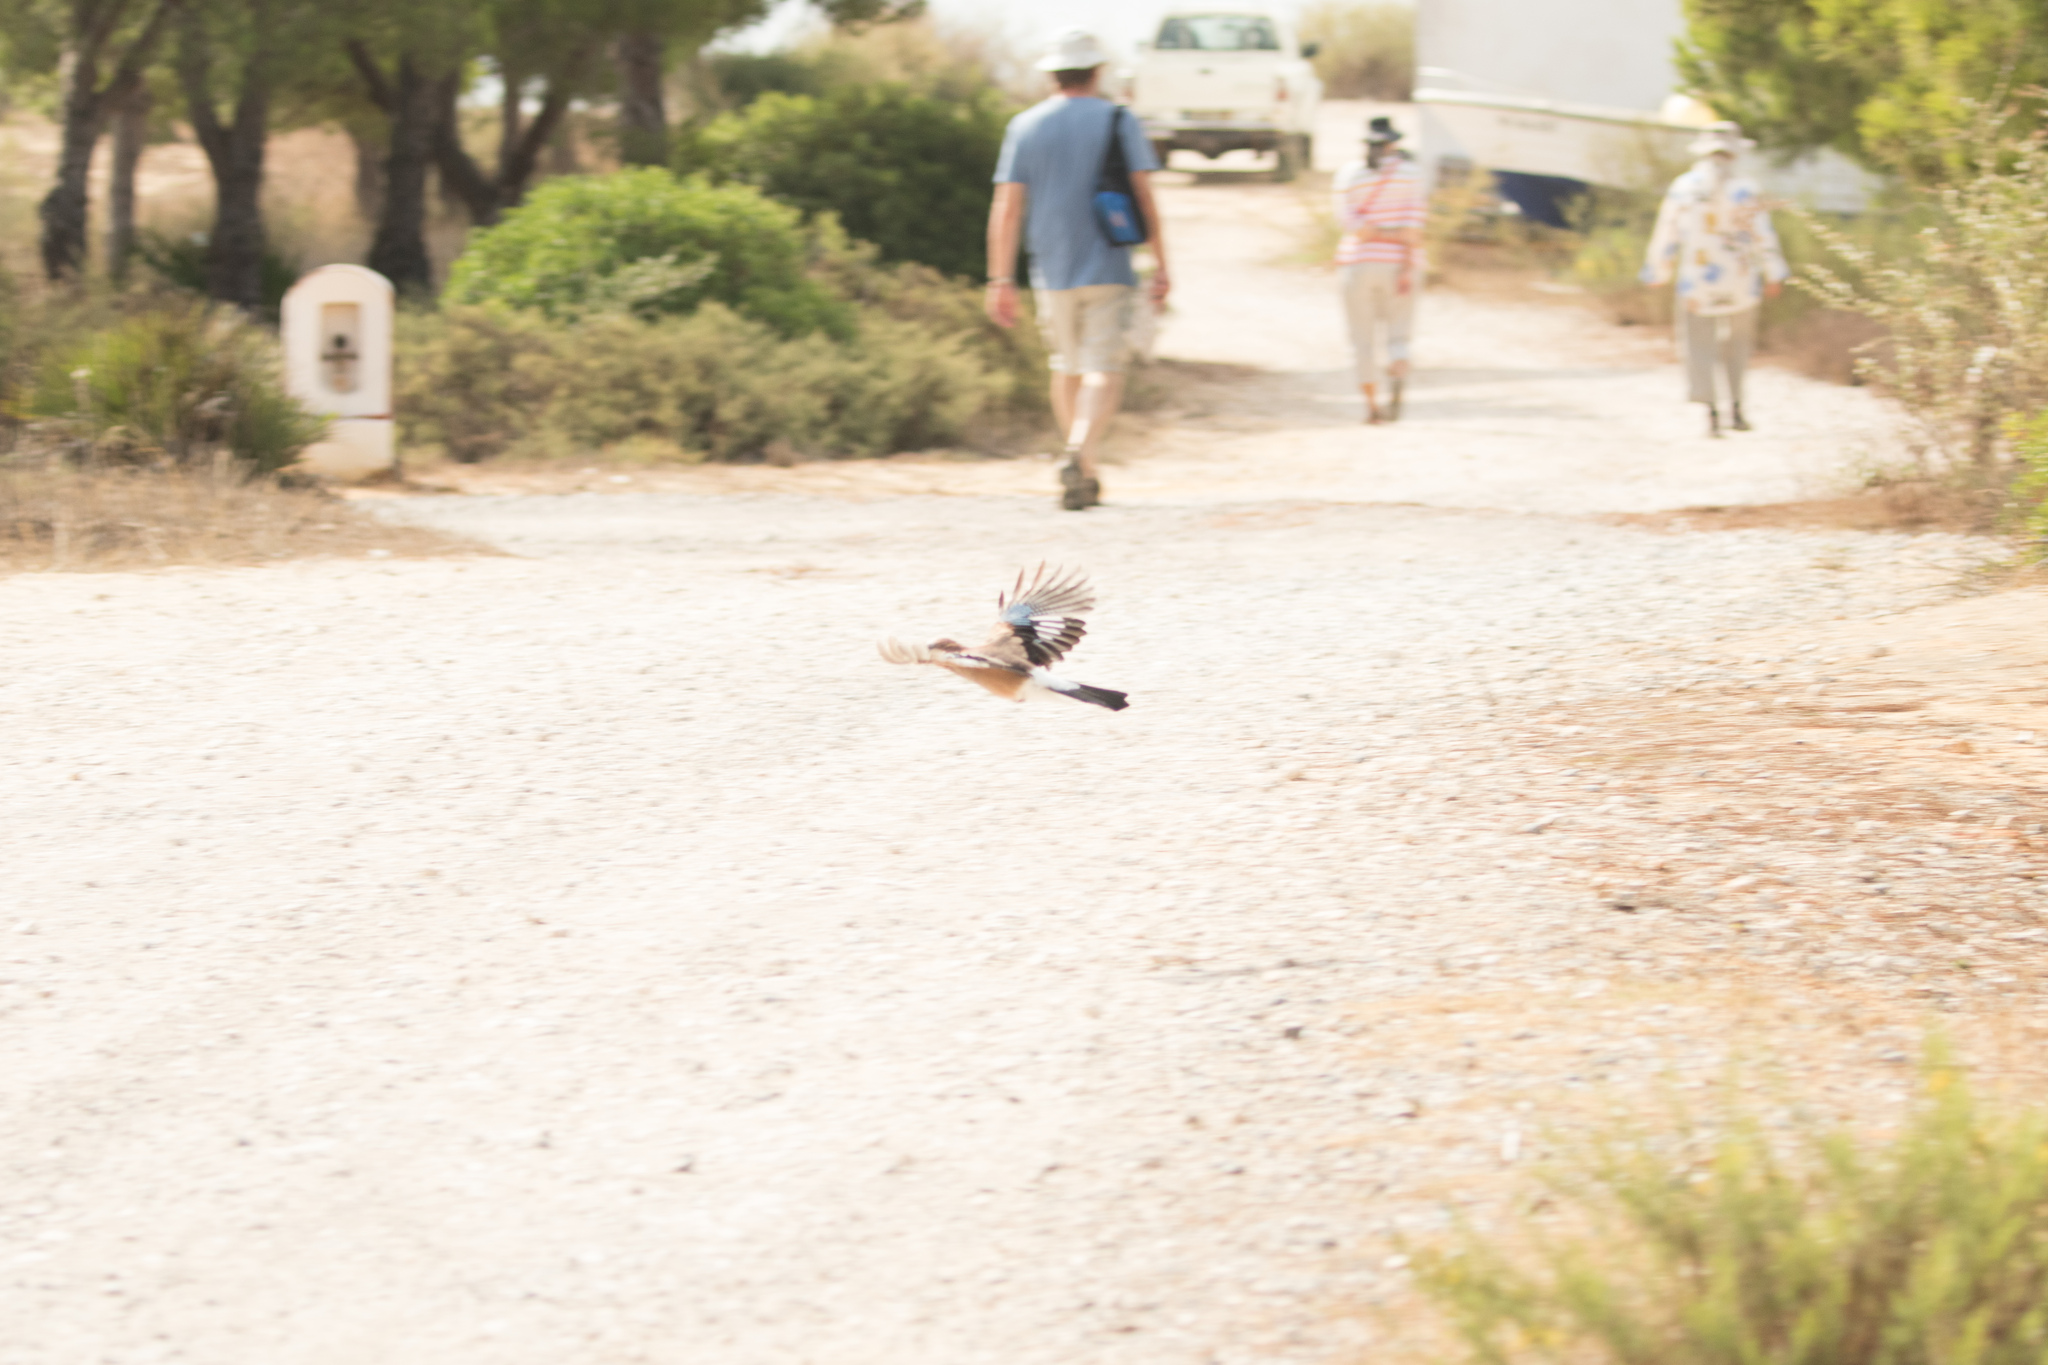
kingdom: Animalia
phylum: Chordata
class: Aves
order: Passeriformes
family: Corvidae
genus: Garrulus
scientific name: Garrulus glandarius
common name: Eurasian jay
